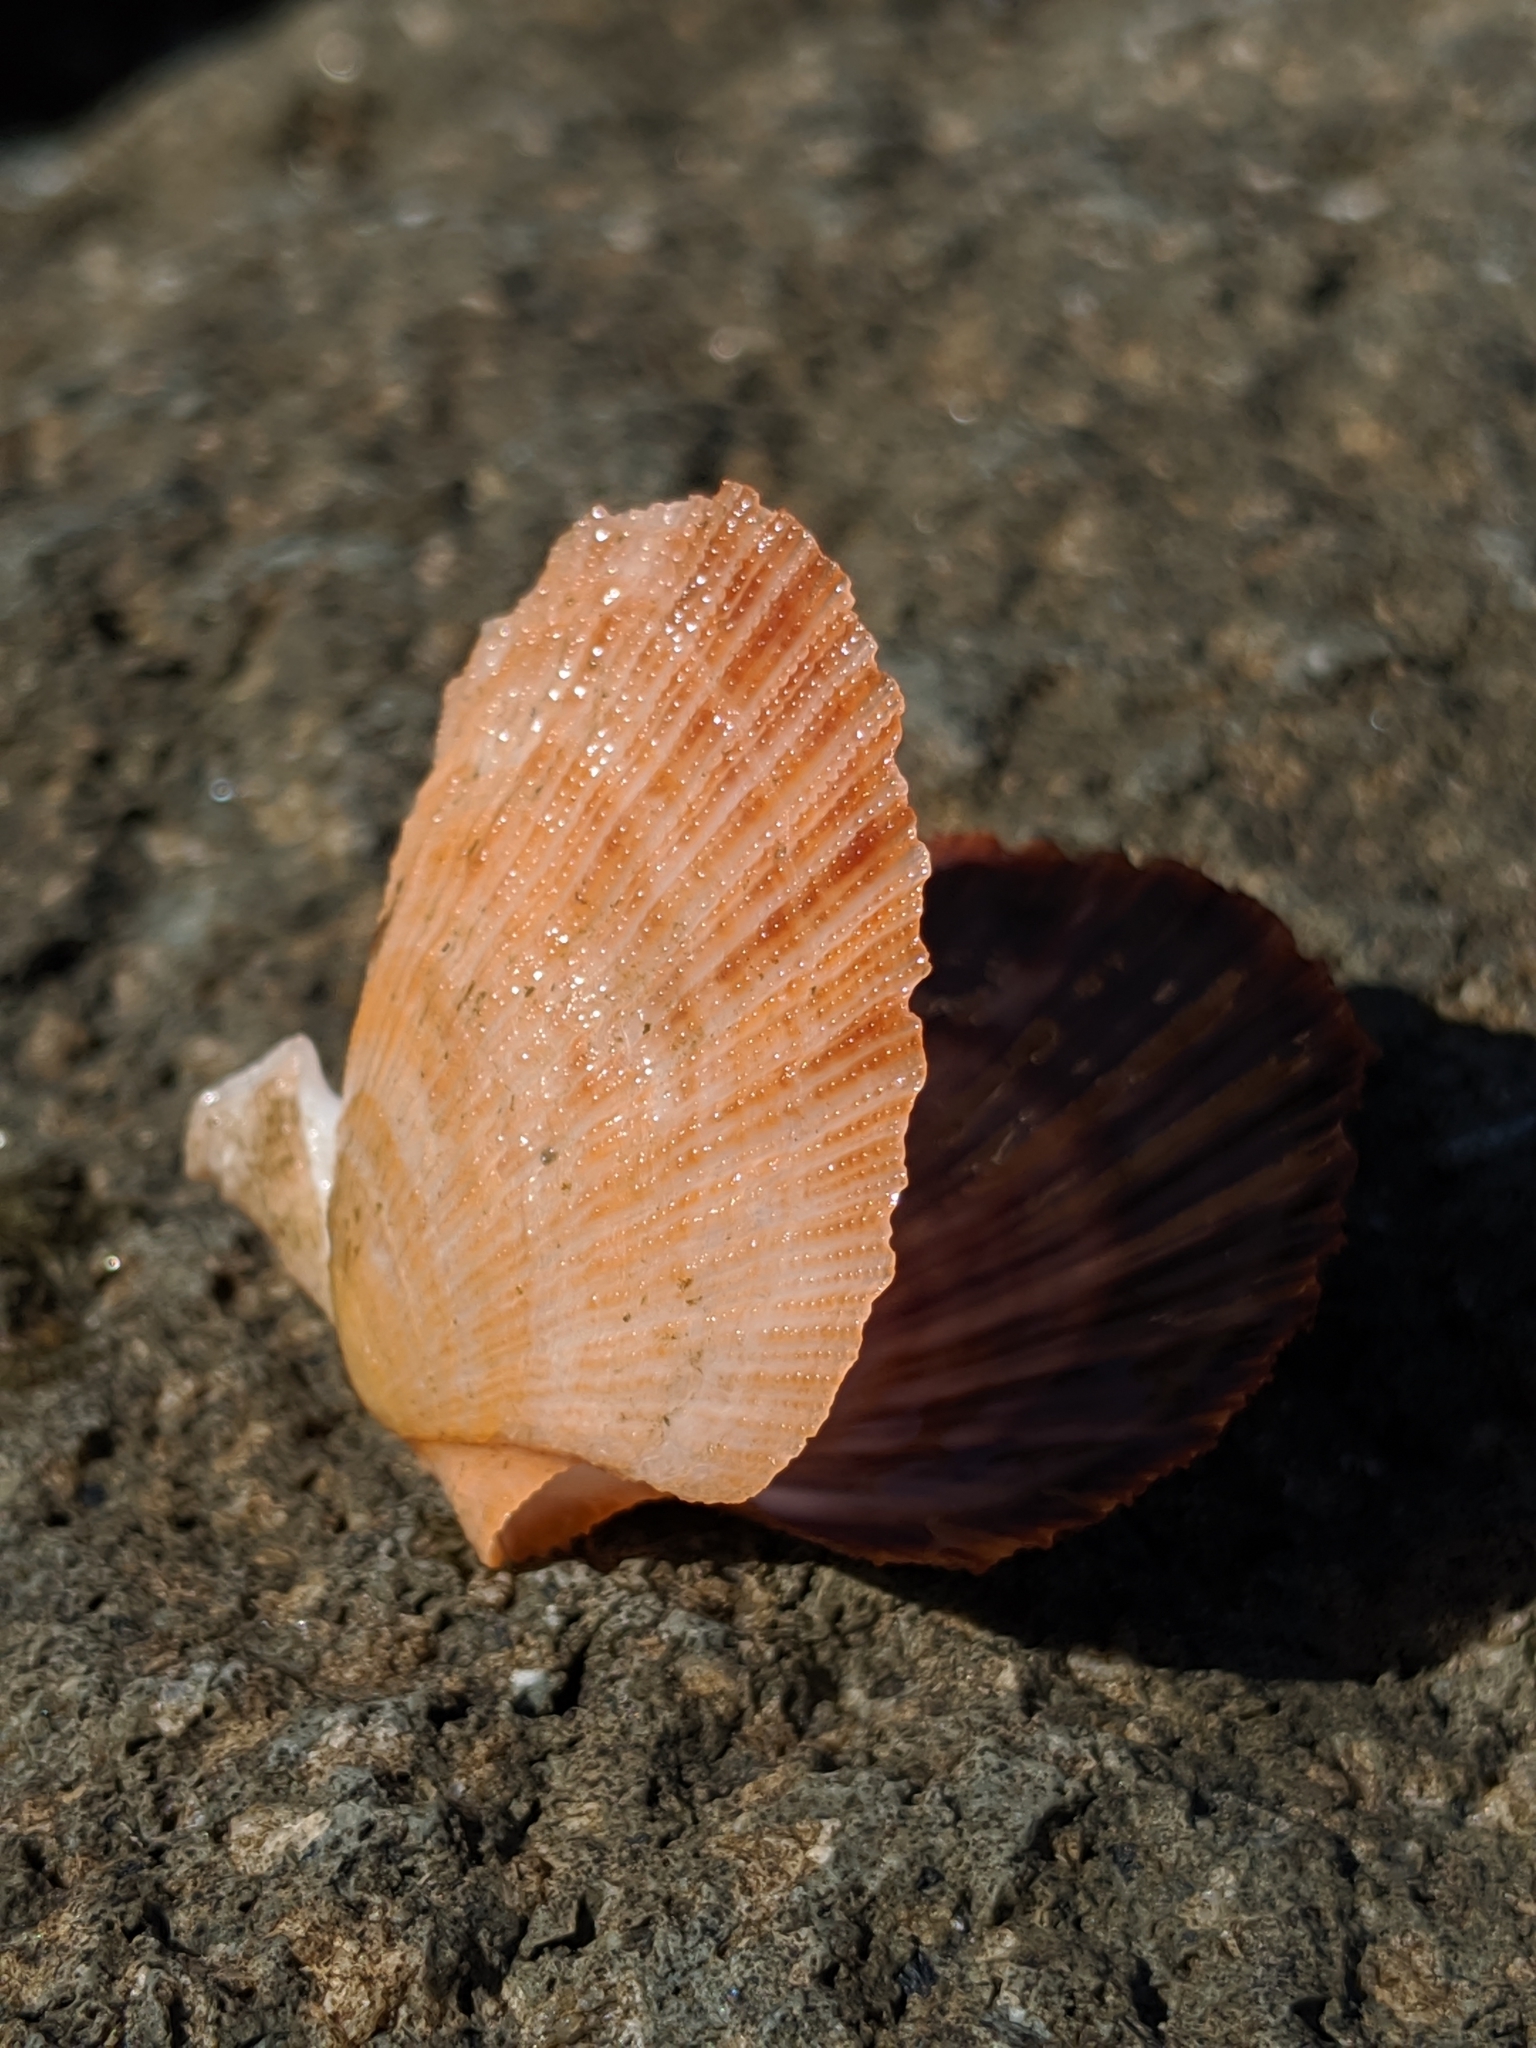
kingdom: Animalia
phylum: Mollusca
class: Bivalvia
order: Pectinida
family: Pectinidae
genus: Crassadoma
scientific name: Crassadoma gigantea
